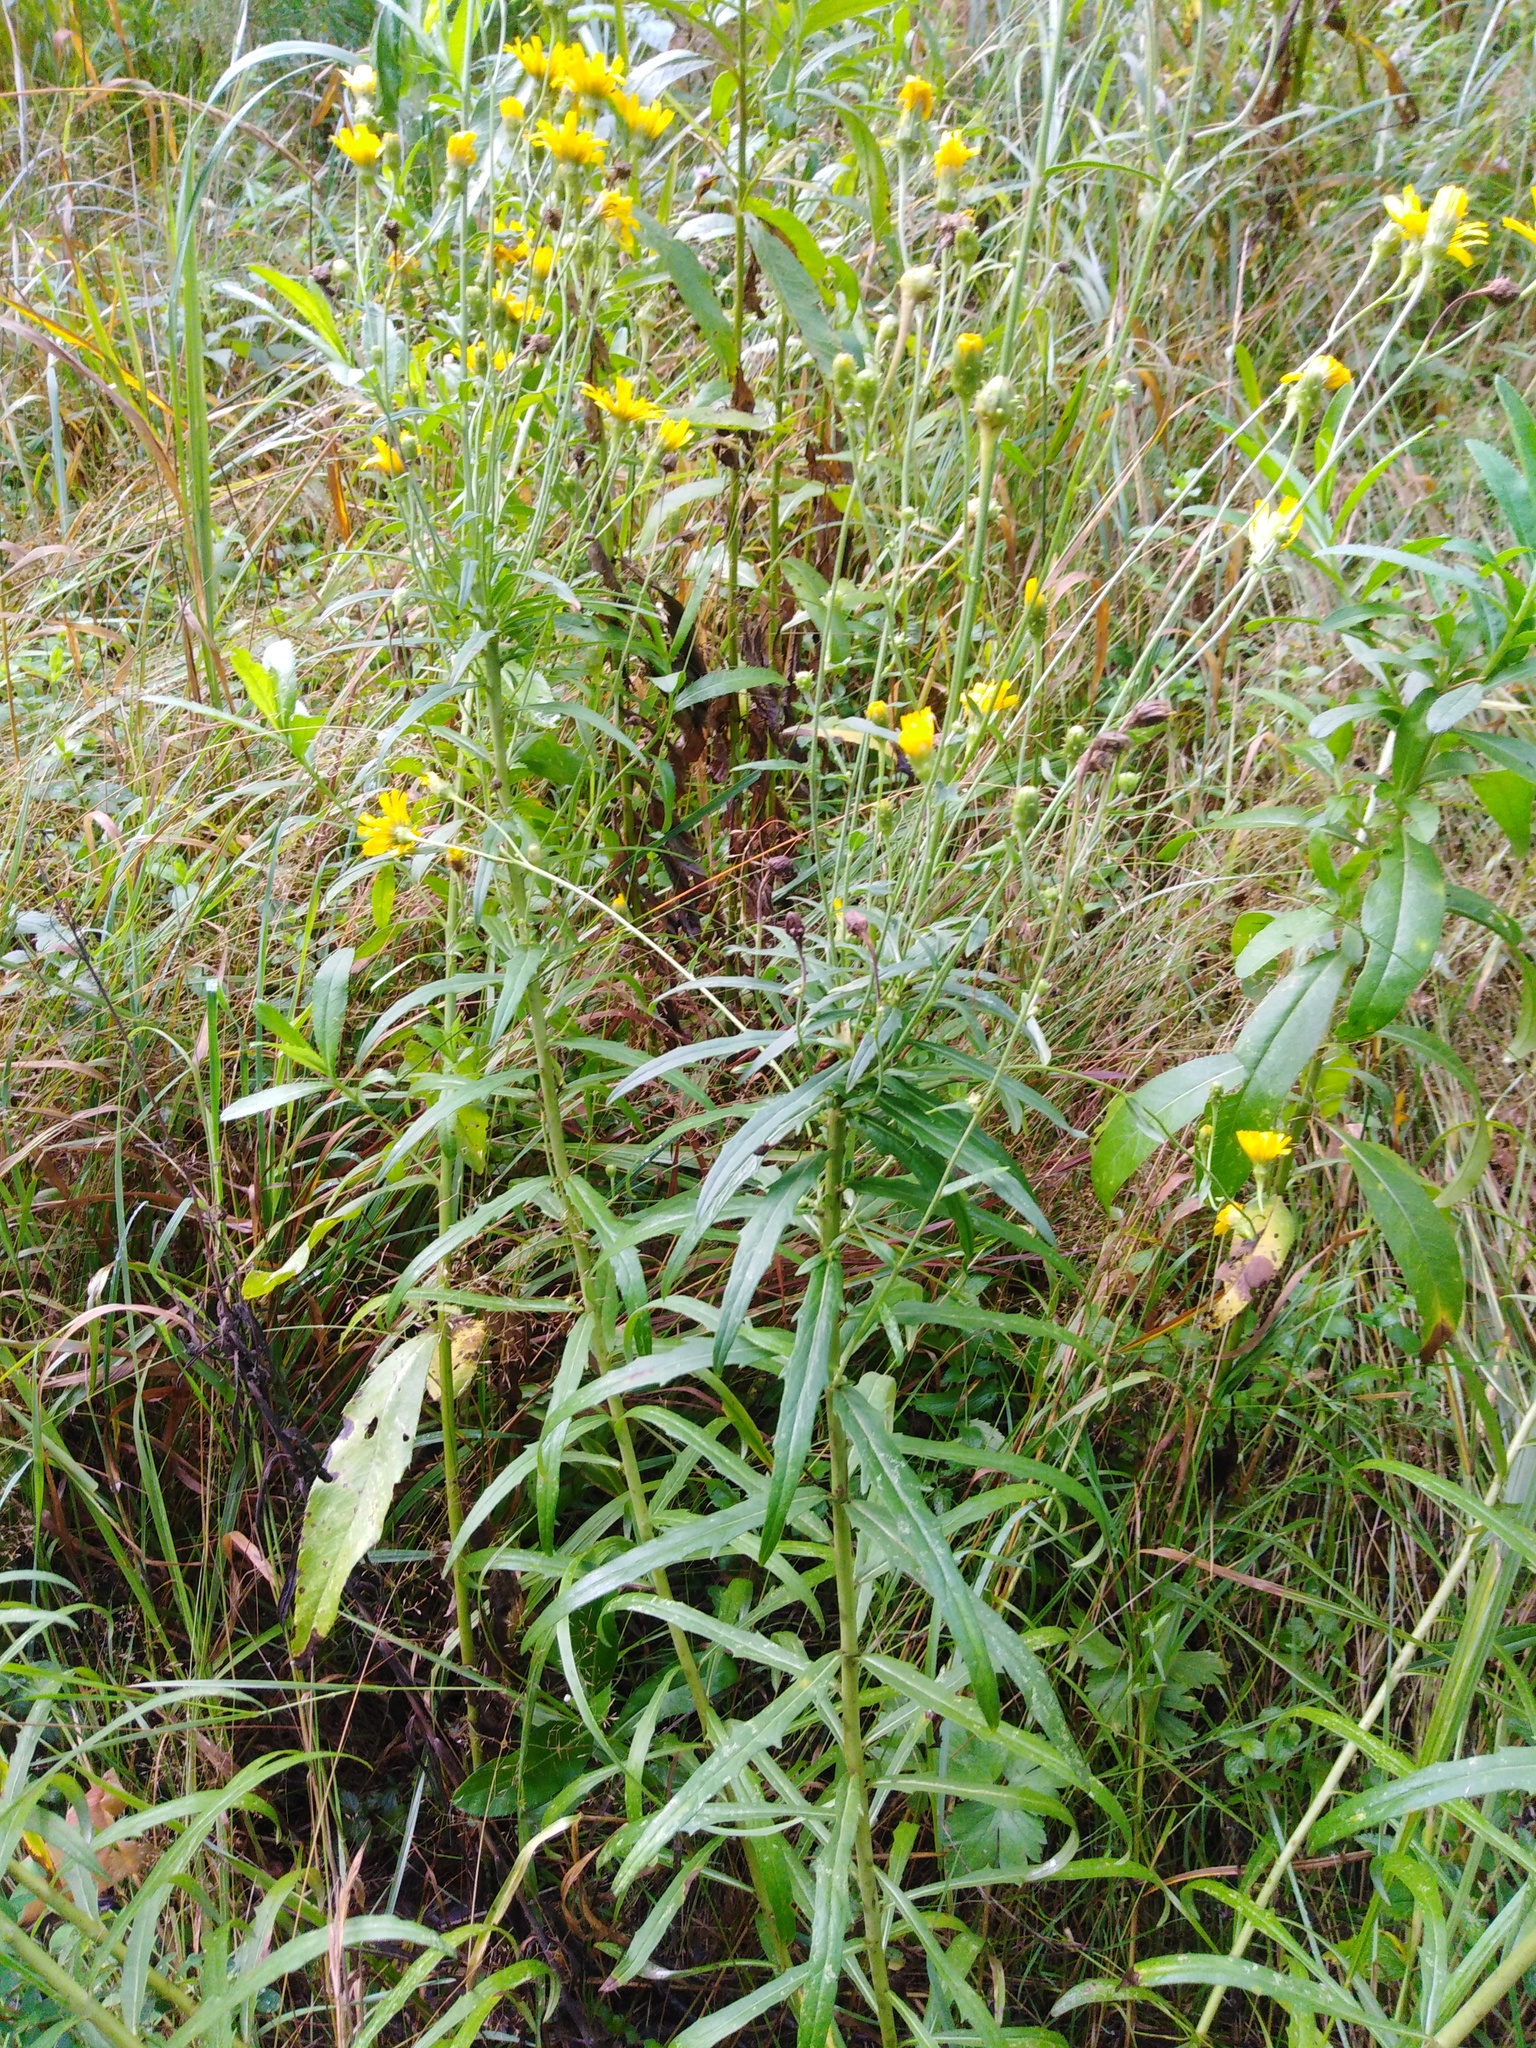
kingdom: Plantae
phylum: Tracheophyta
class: Magnoliopsida
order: Asterales
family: Asteraceae
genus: Hieracium
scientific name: Hieracium umbellatum
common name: Northern hawkweed
